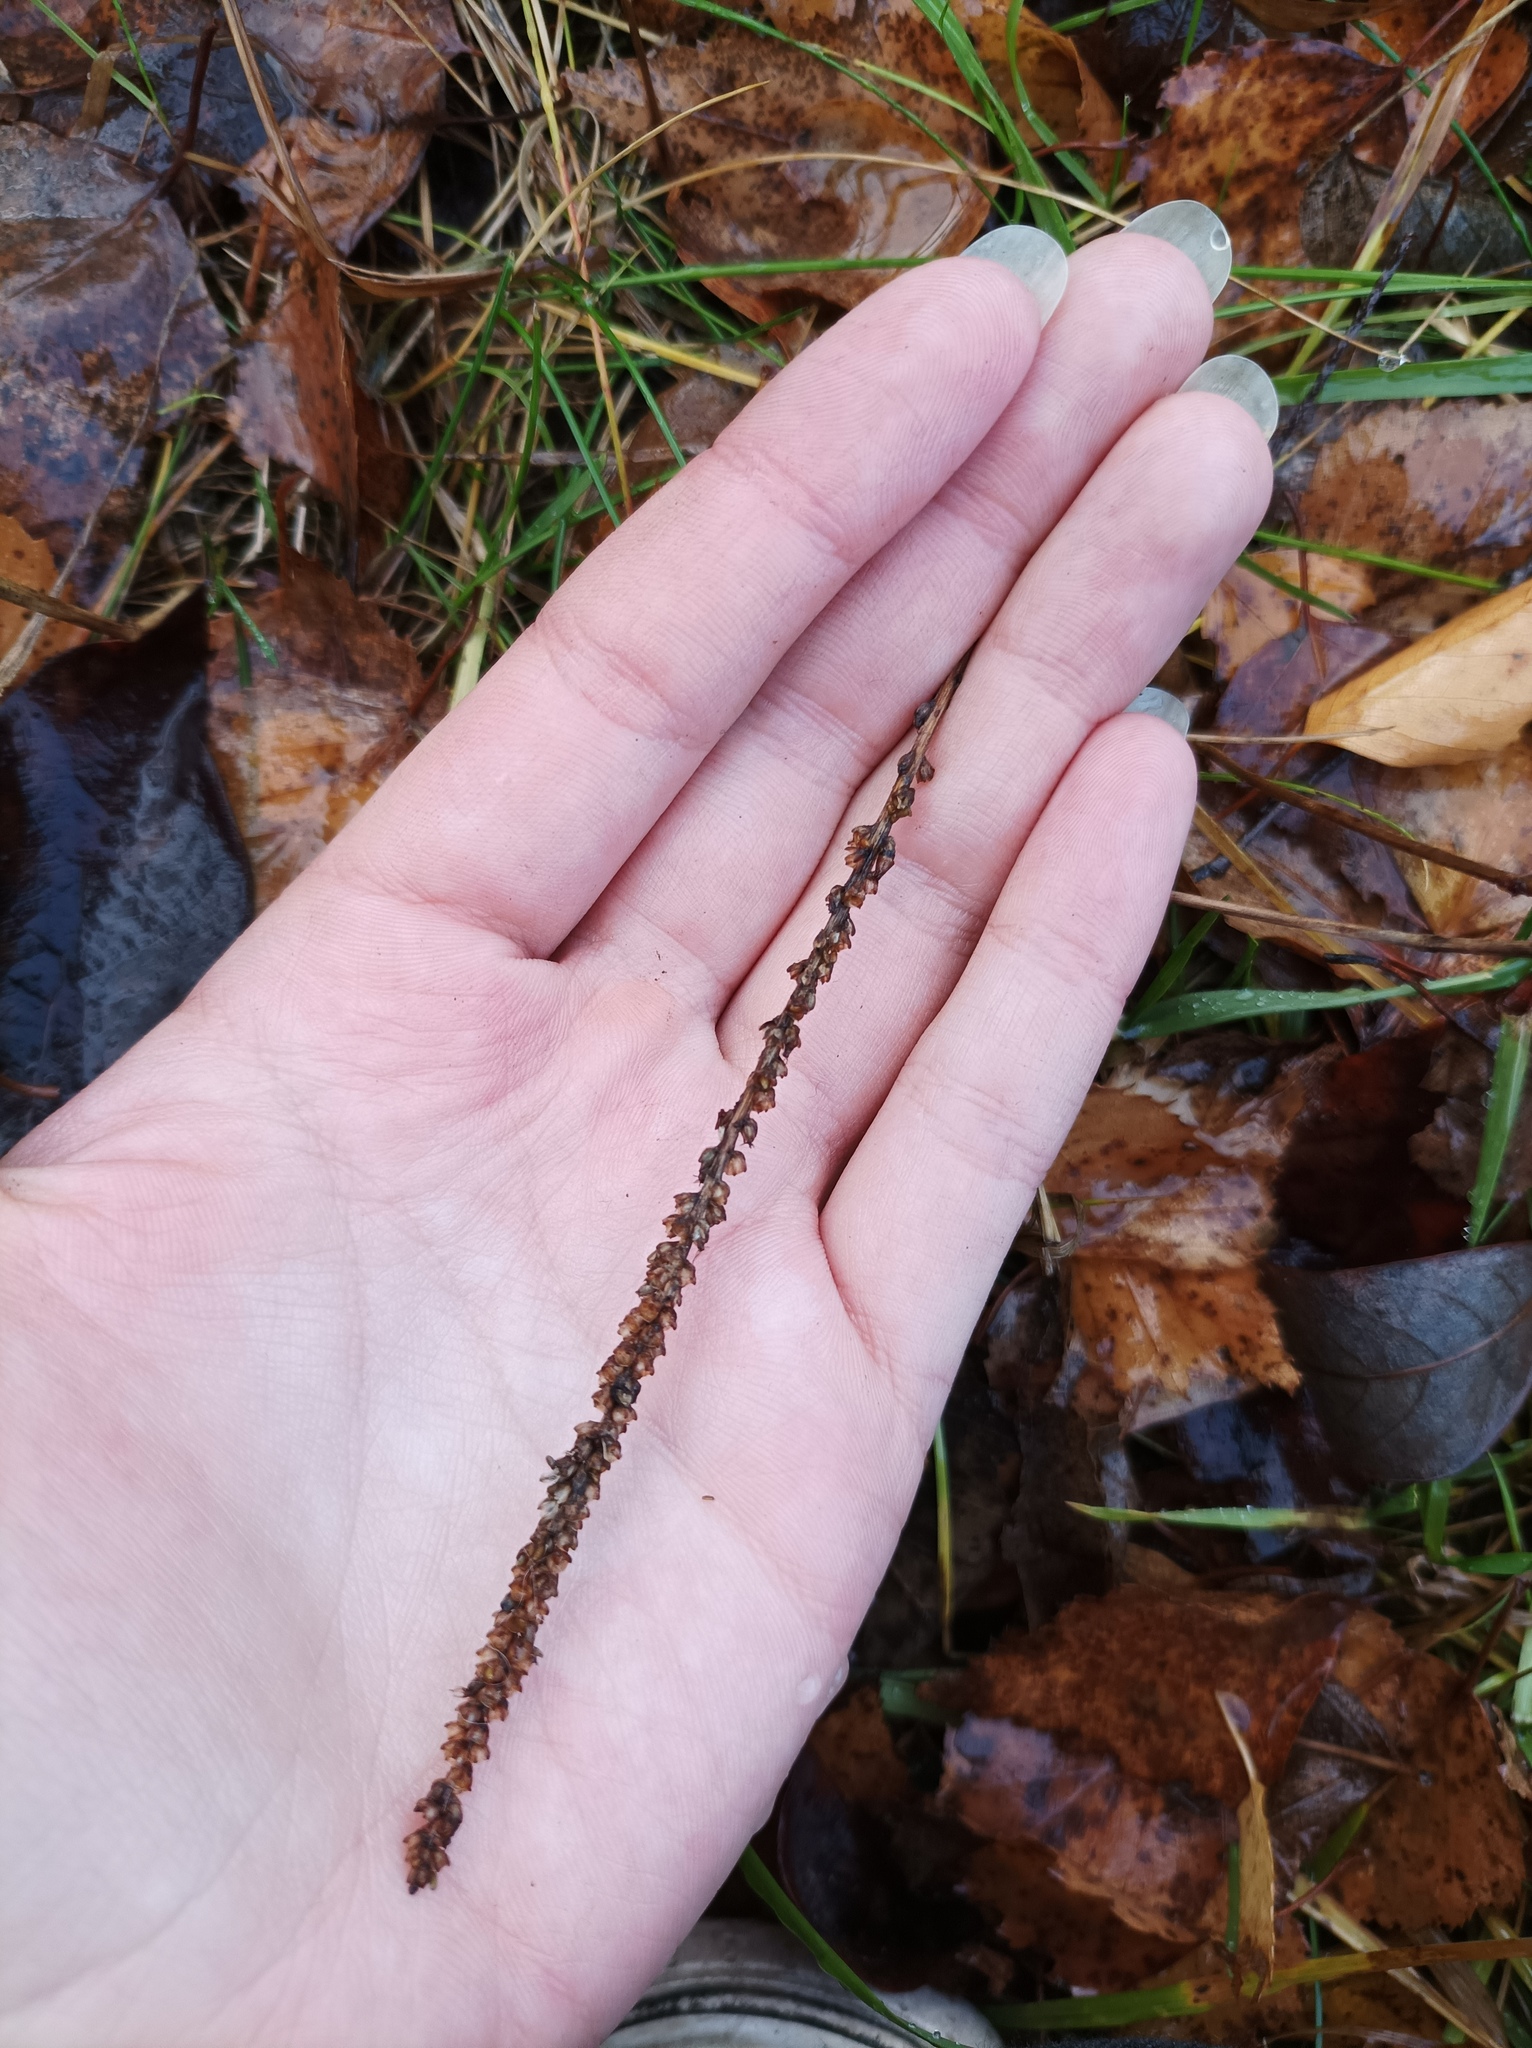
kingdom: Plantae
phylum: Tracheophyta
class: Magnoliopsida
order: Lamiales
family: Plantaginaceae
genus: Plantago
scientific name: Plantago major
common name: Common plantain
